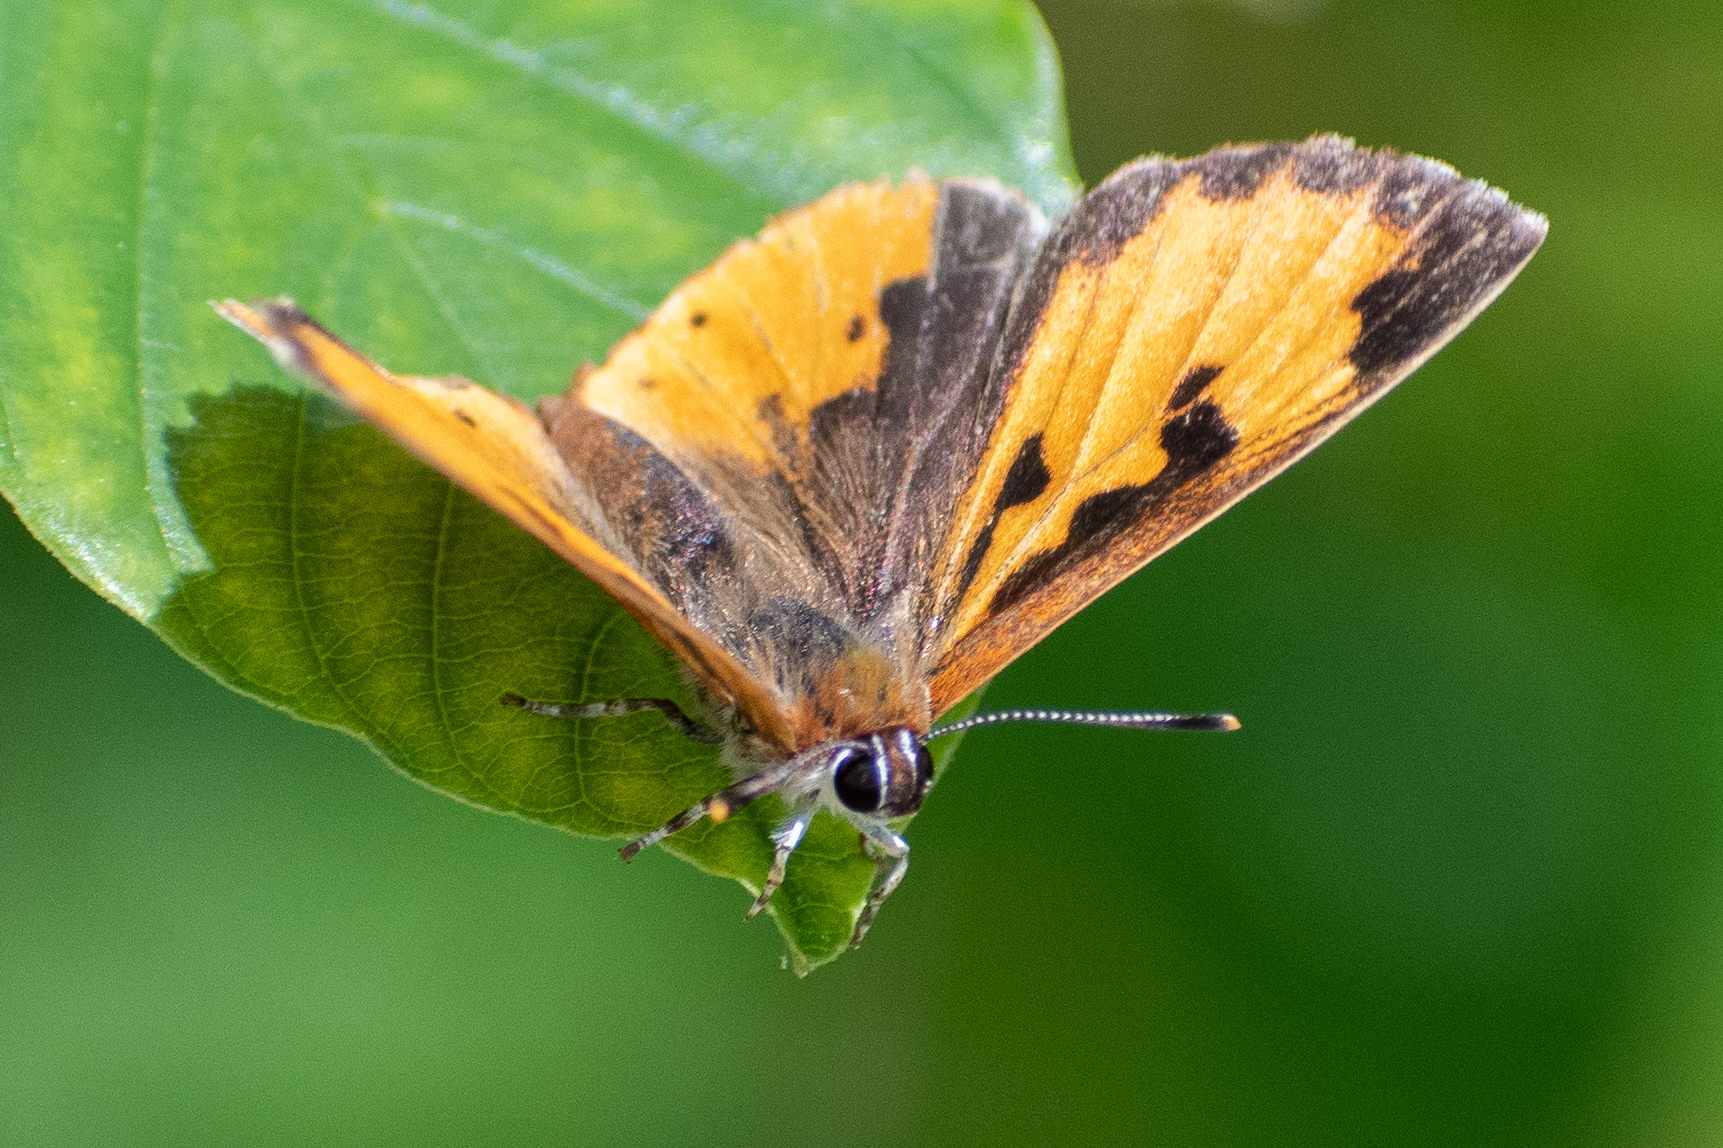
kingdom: Animalia
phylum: Arthropoda
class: Insecta
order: Lepidoptera
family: Lycaenidae
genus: Feniseca
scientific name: Feniseca tarquinius
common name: Harvester
